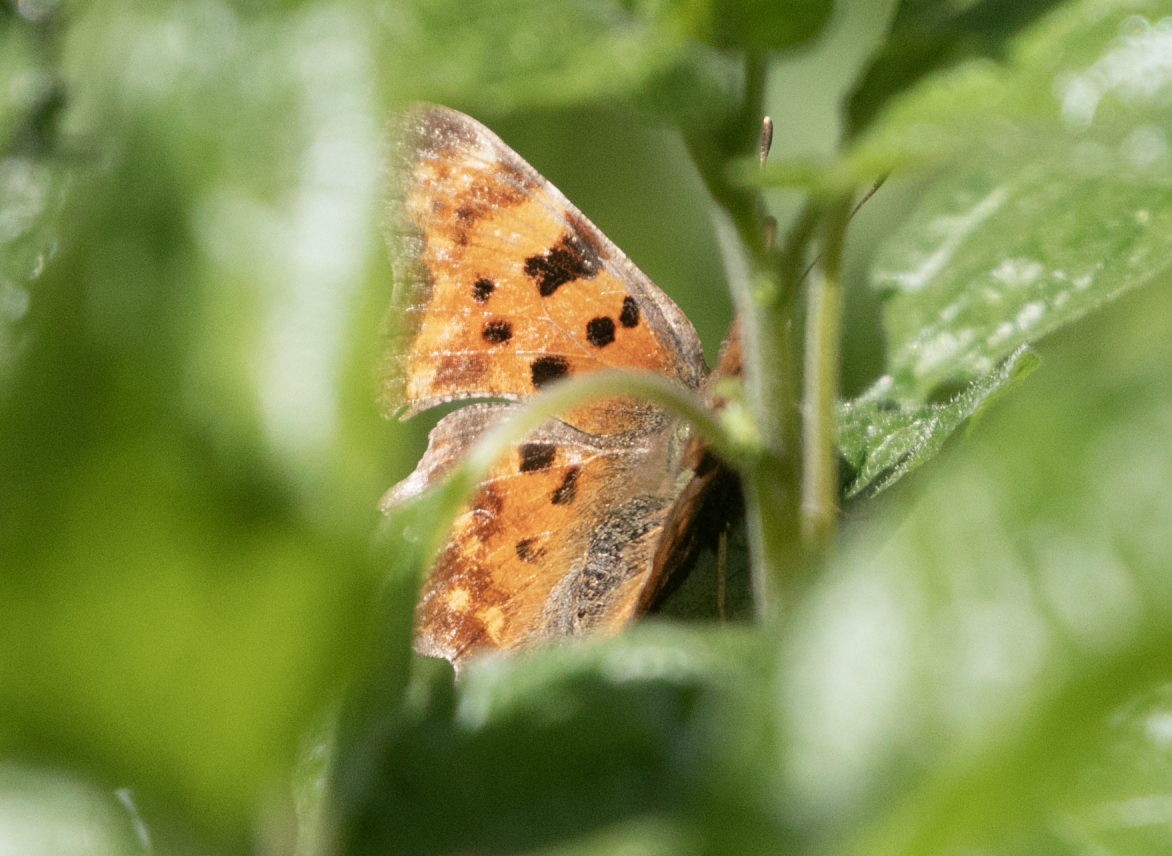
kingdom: Animalia
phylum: Arthropoda
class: Insecta
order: Lepidoptera
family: Nymphalidae
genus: Polygonia
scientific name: Polygonia c-album
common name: Comma
